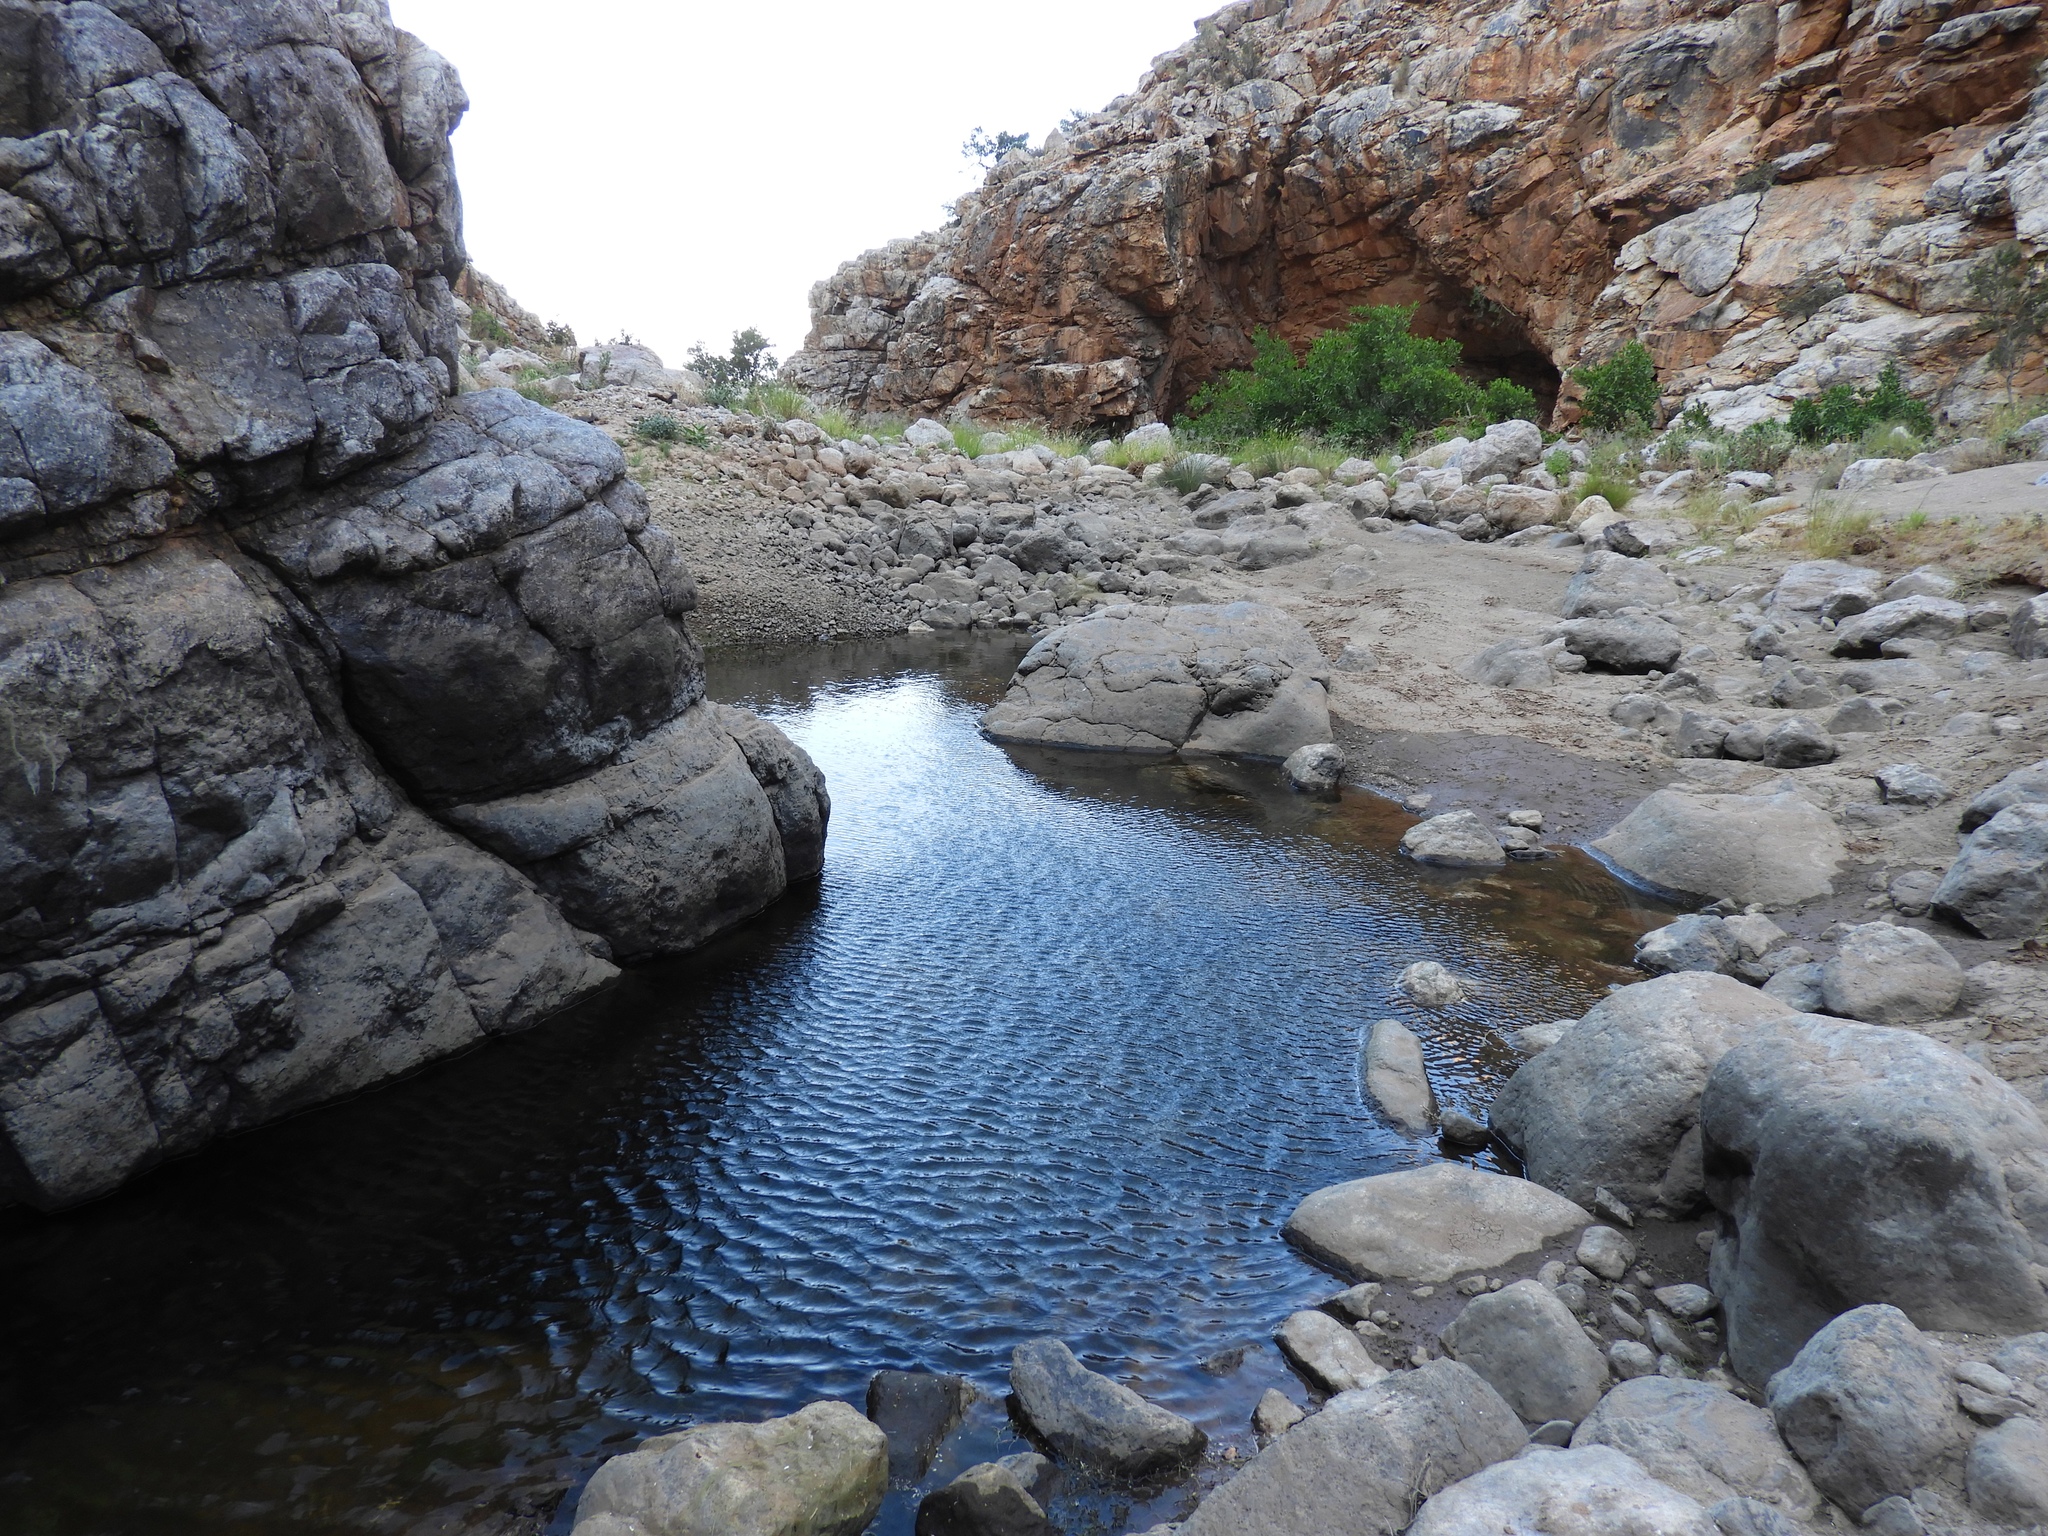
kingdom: Animalia
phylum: Chordata
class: Amphibia
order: Anura
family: Microhylidae
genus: Phrynomantis
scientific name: Phrynomantis annectens
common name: Marbled rubber frog
